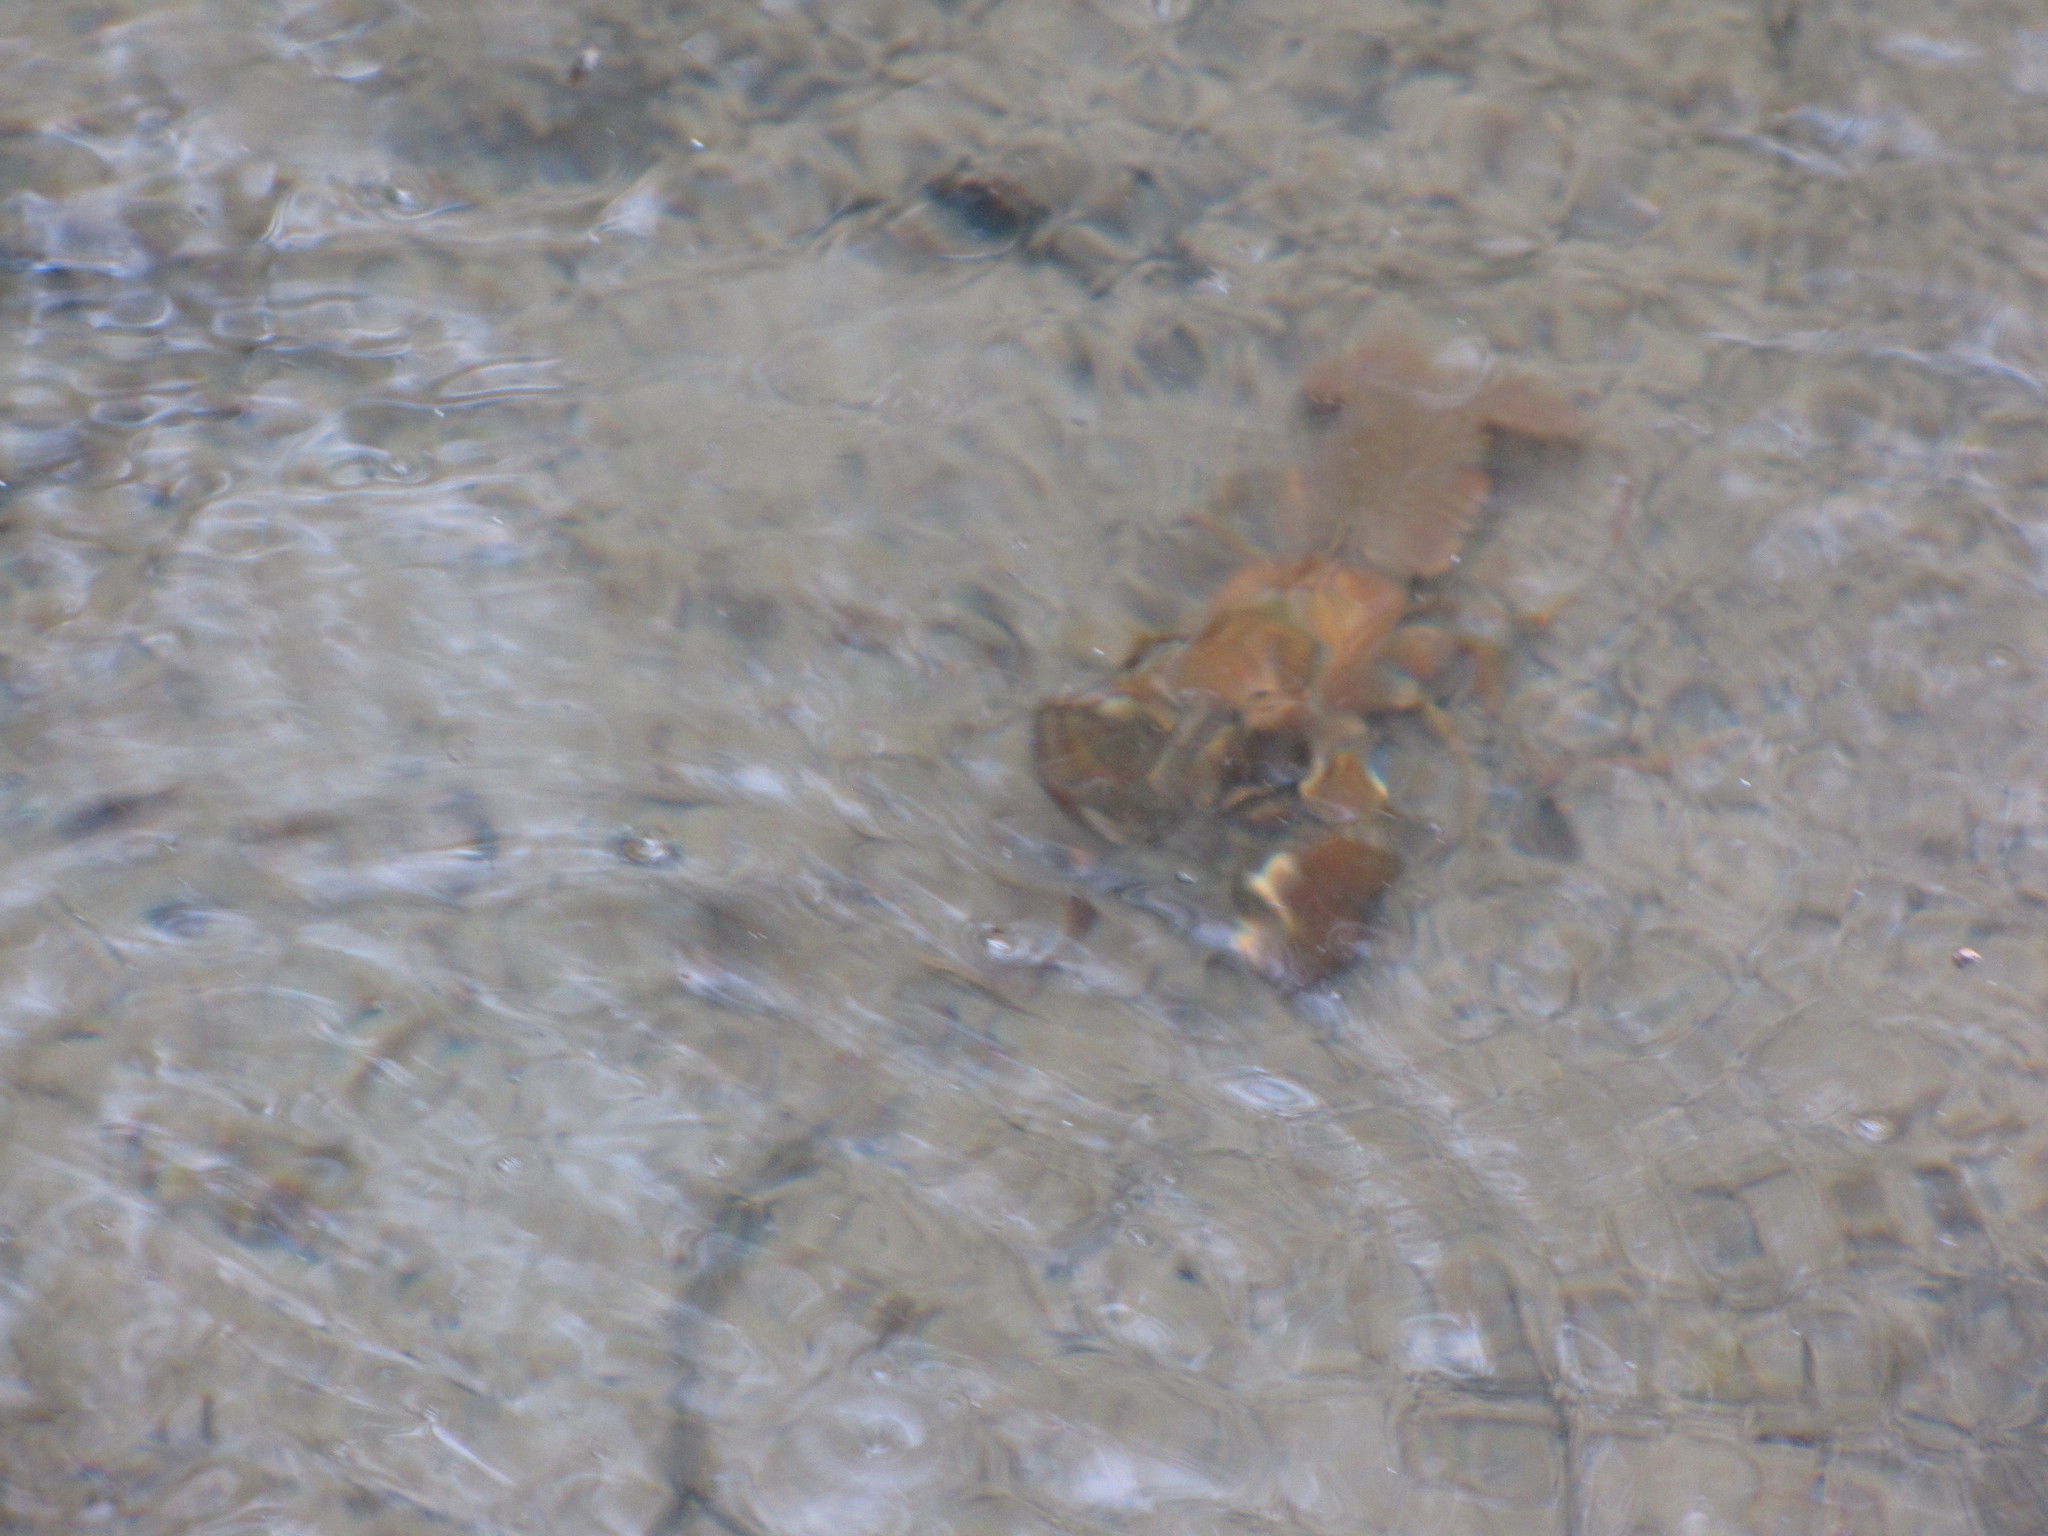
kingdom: Animalia
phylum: Arthropoda
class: Malacostraca
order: Decapoda
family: Astacidae
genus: Pacifastacus
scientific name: Pacifastacus leniusculus
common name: Signal crayfish
